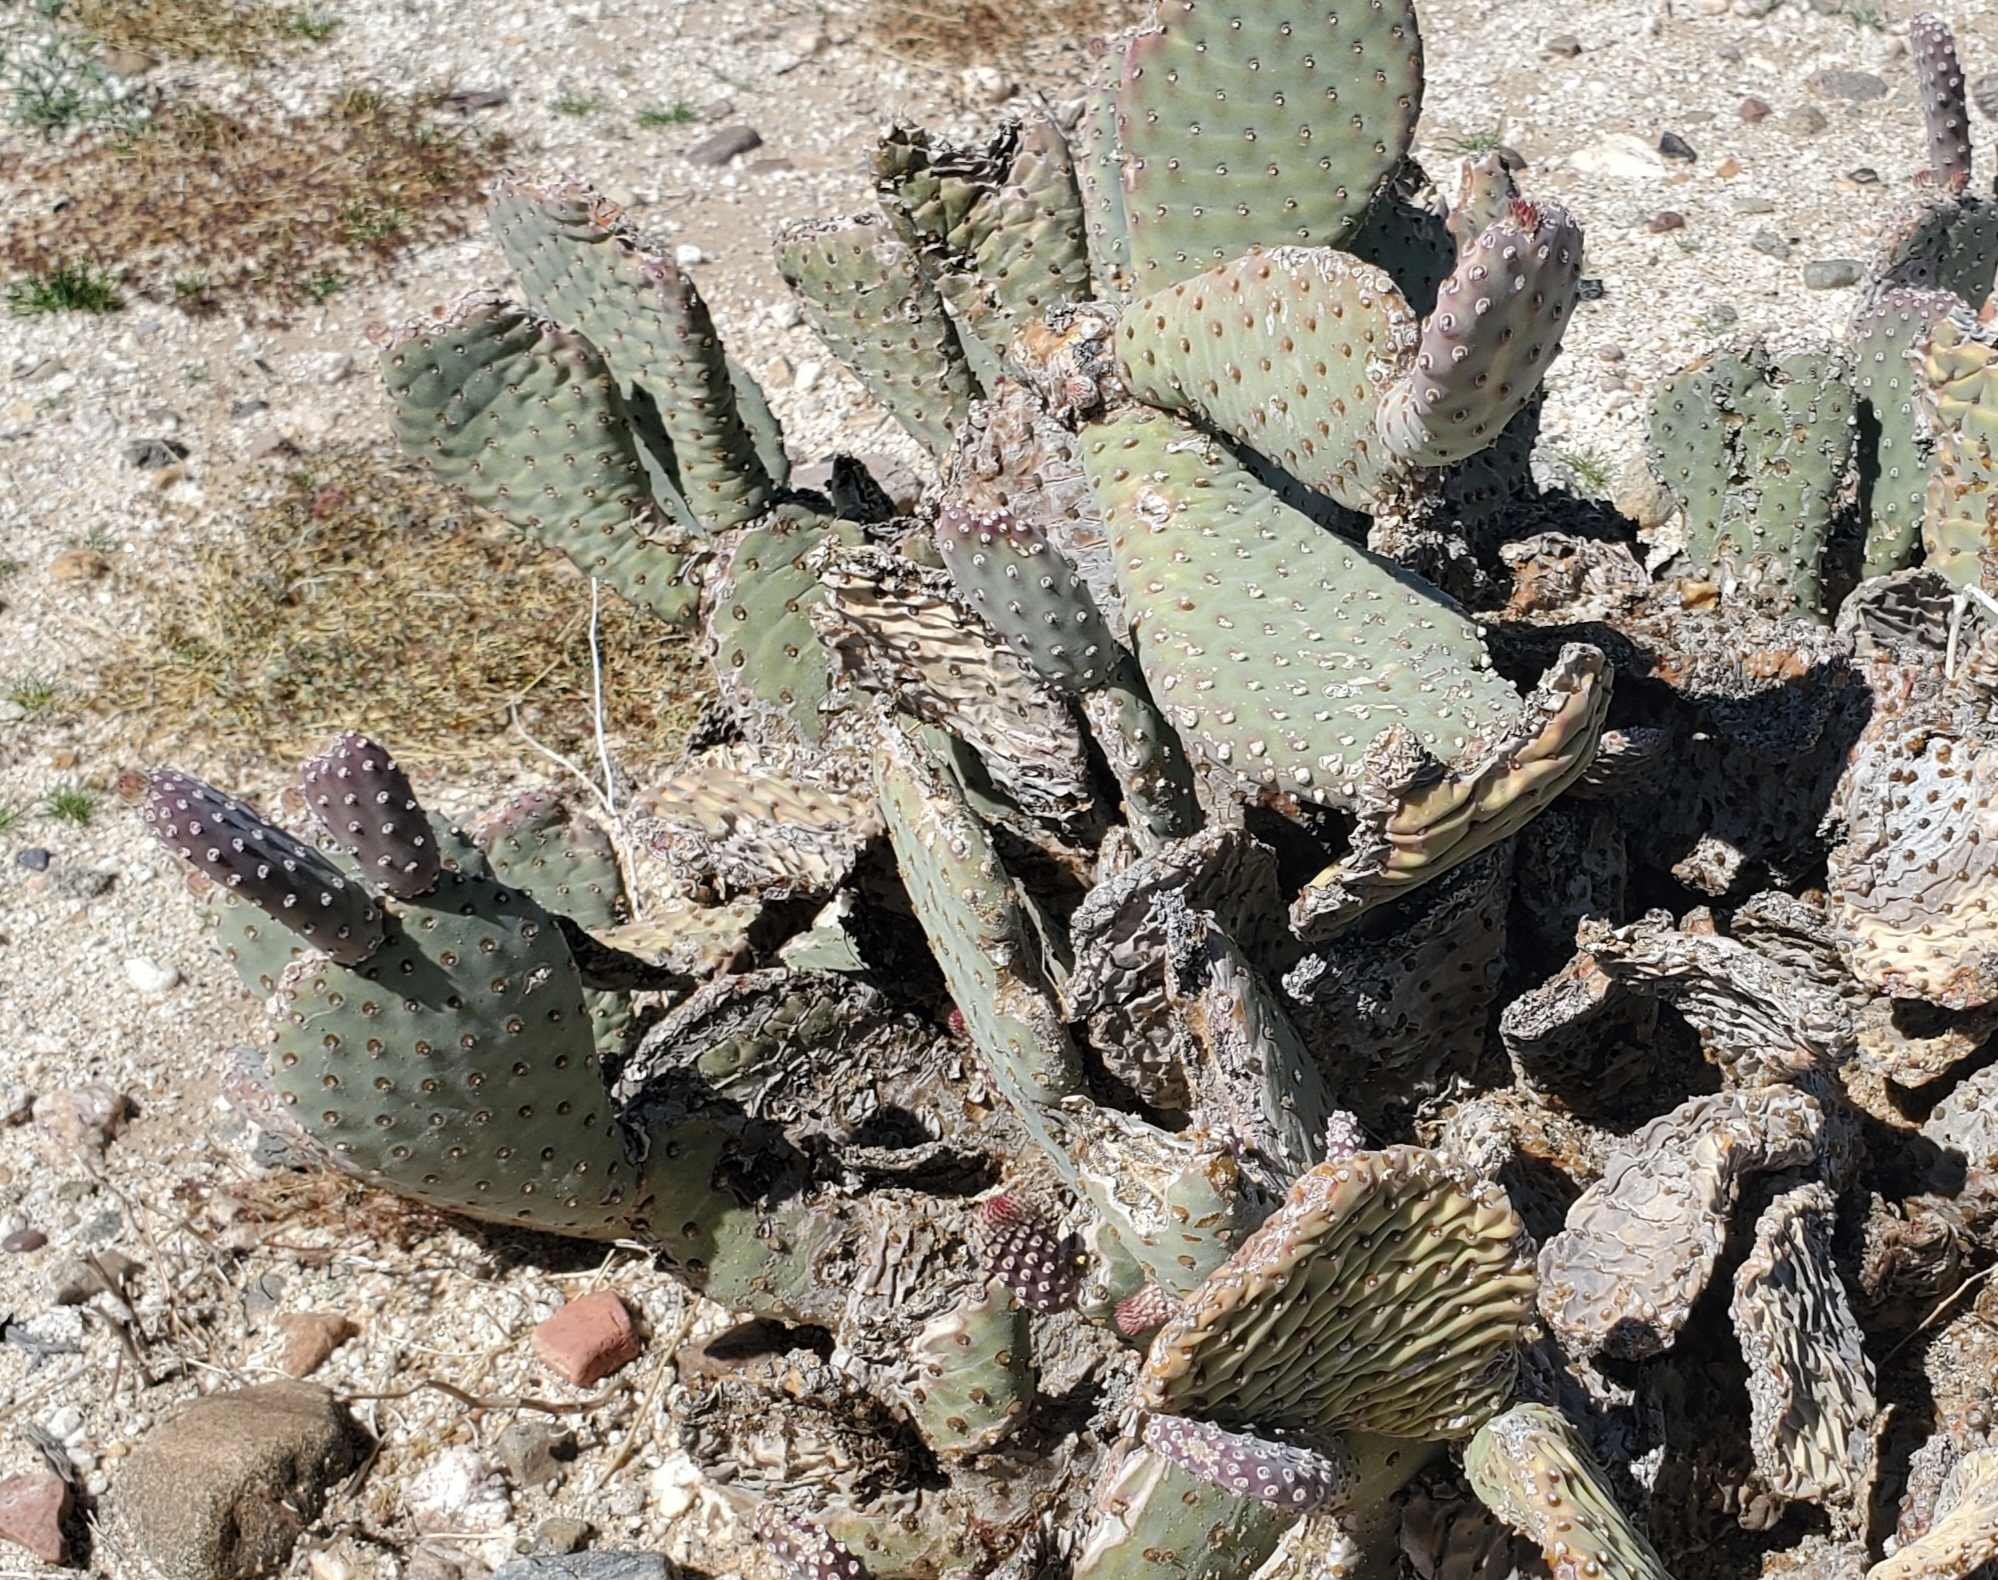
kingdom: Plantae
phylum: Tracheophyta
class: Magnoliopsida
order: Caryophyllales
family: Cactaceae
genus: Opuntia
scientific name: Opuntia basilaris
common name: Beavertail prickly-pear
